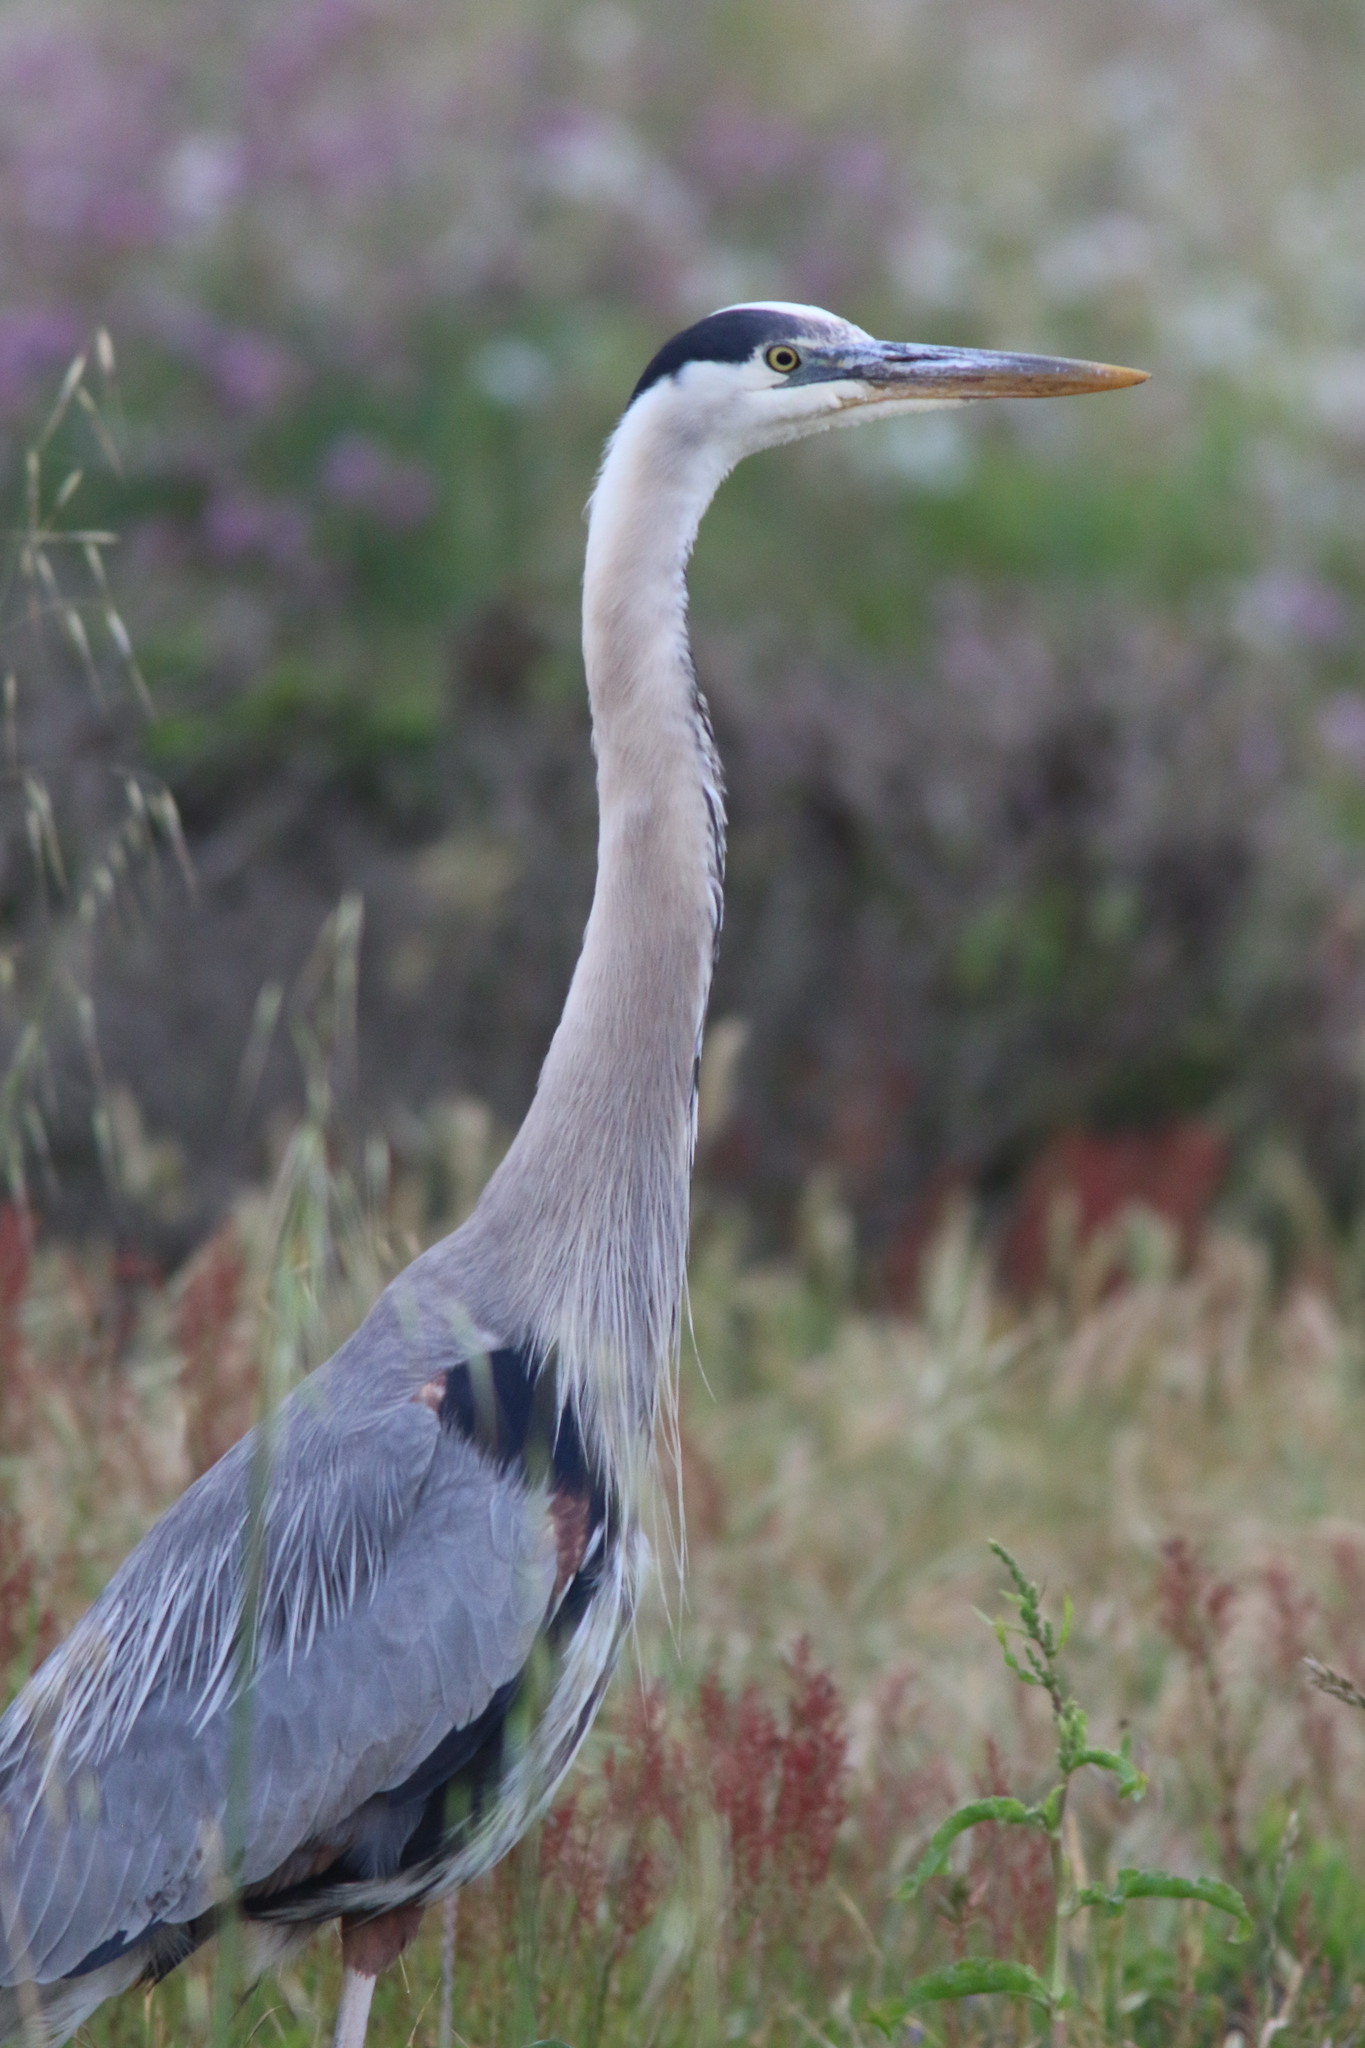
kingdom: Animalia
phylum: Chordata
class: Aves
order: Pelecaniformes
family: Ardeidae
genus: Ardea
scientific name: Ardea herodias
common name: Great blue heron
